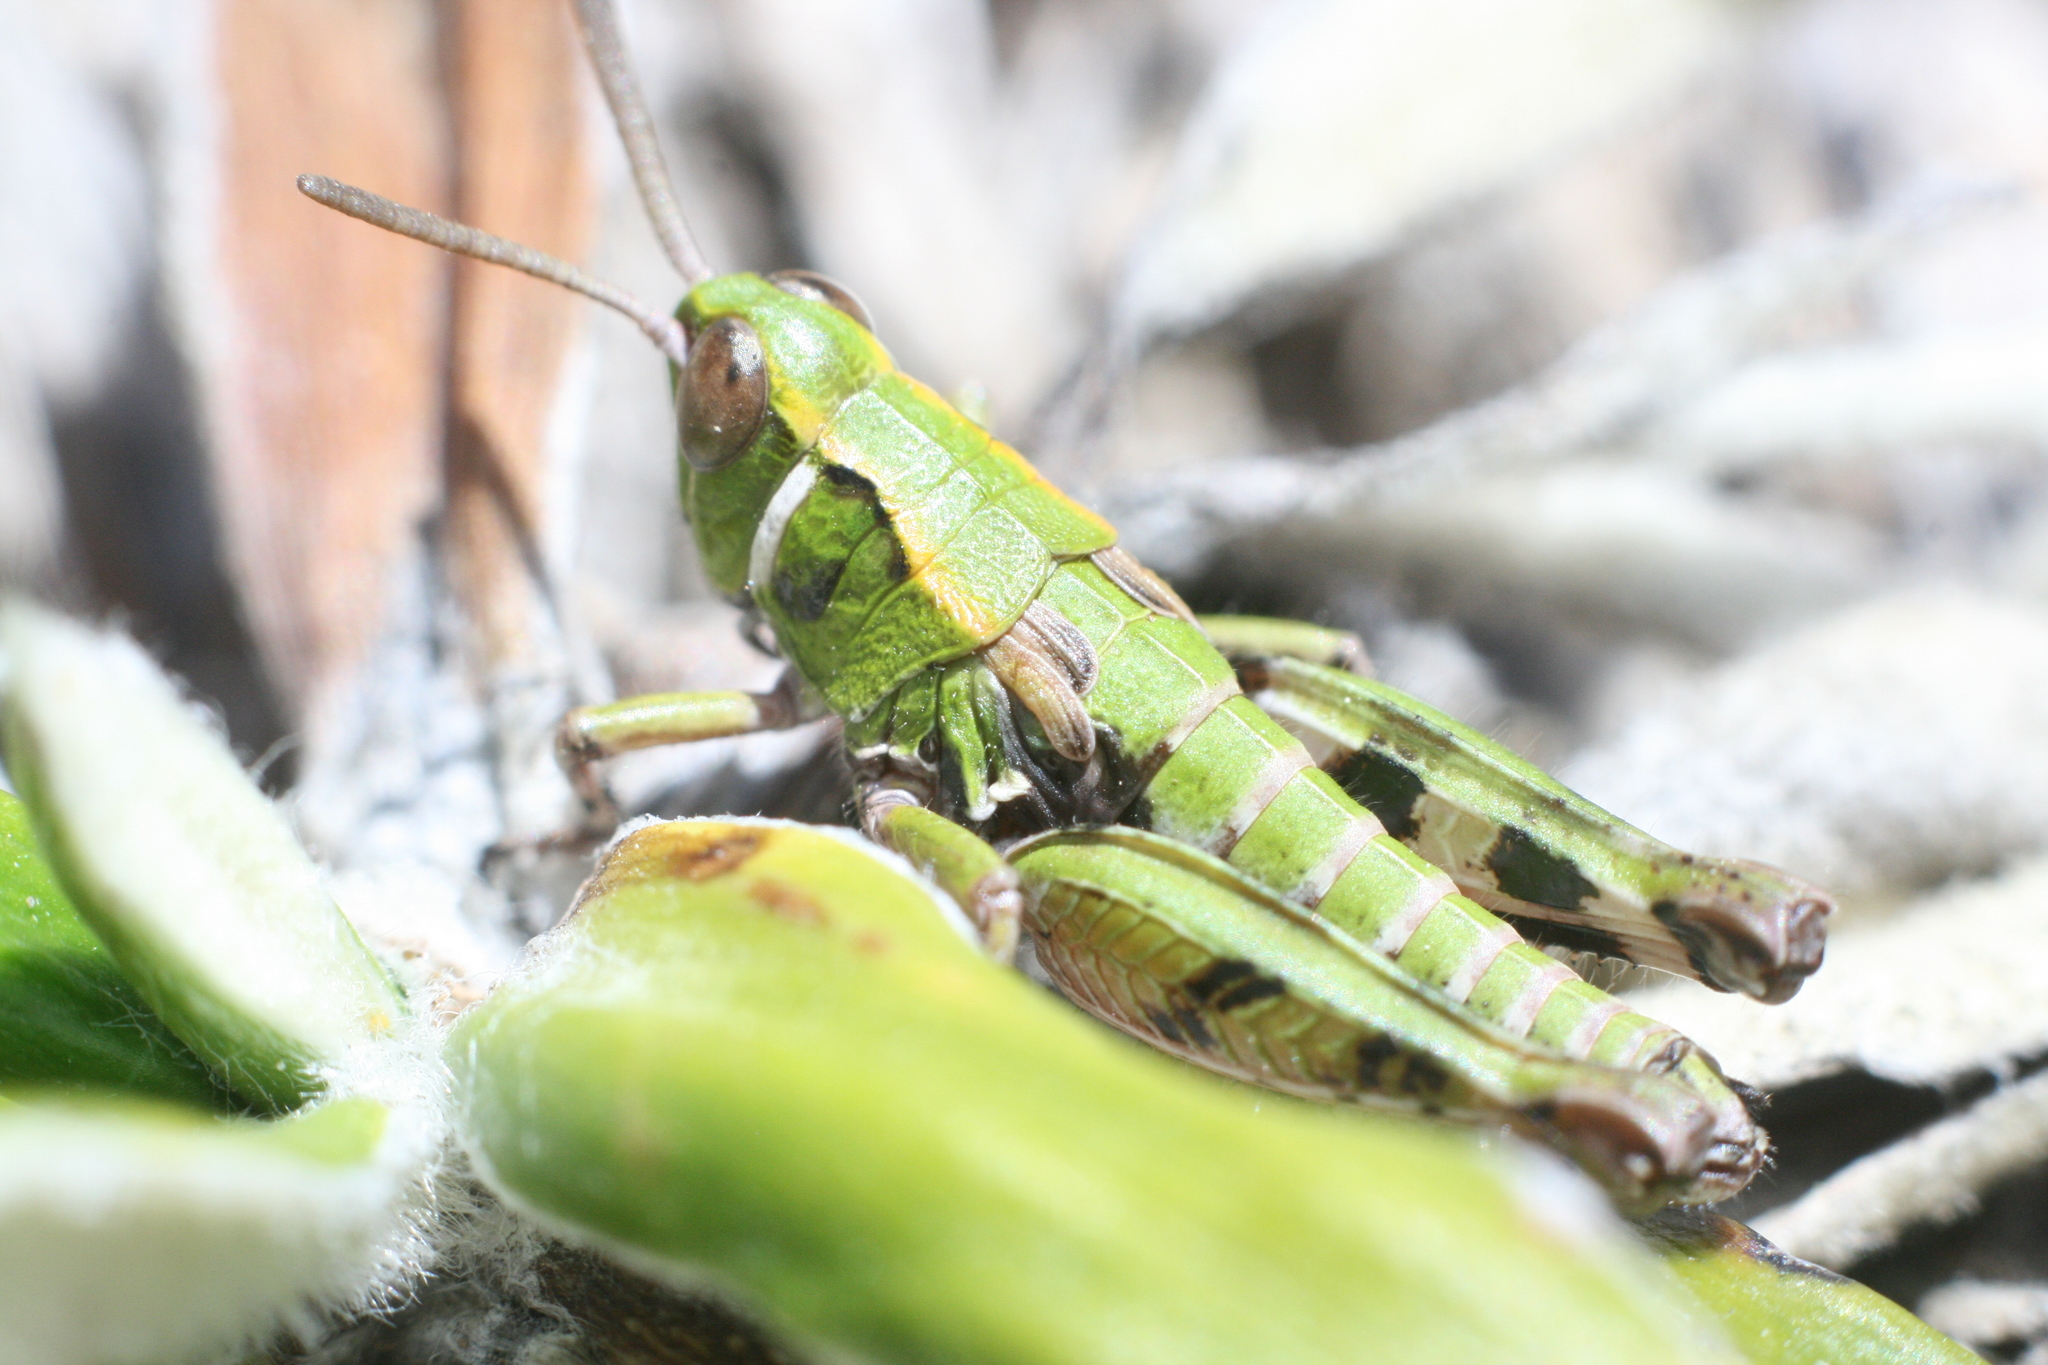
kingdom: Animalia
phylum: Arthropoda
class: Insecta
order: Orthoptera
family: Acrididae
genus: Sigaus
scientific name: Sigaus australis
